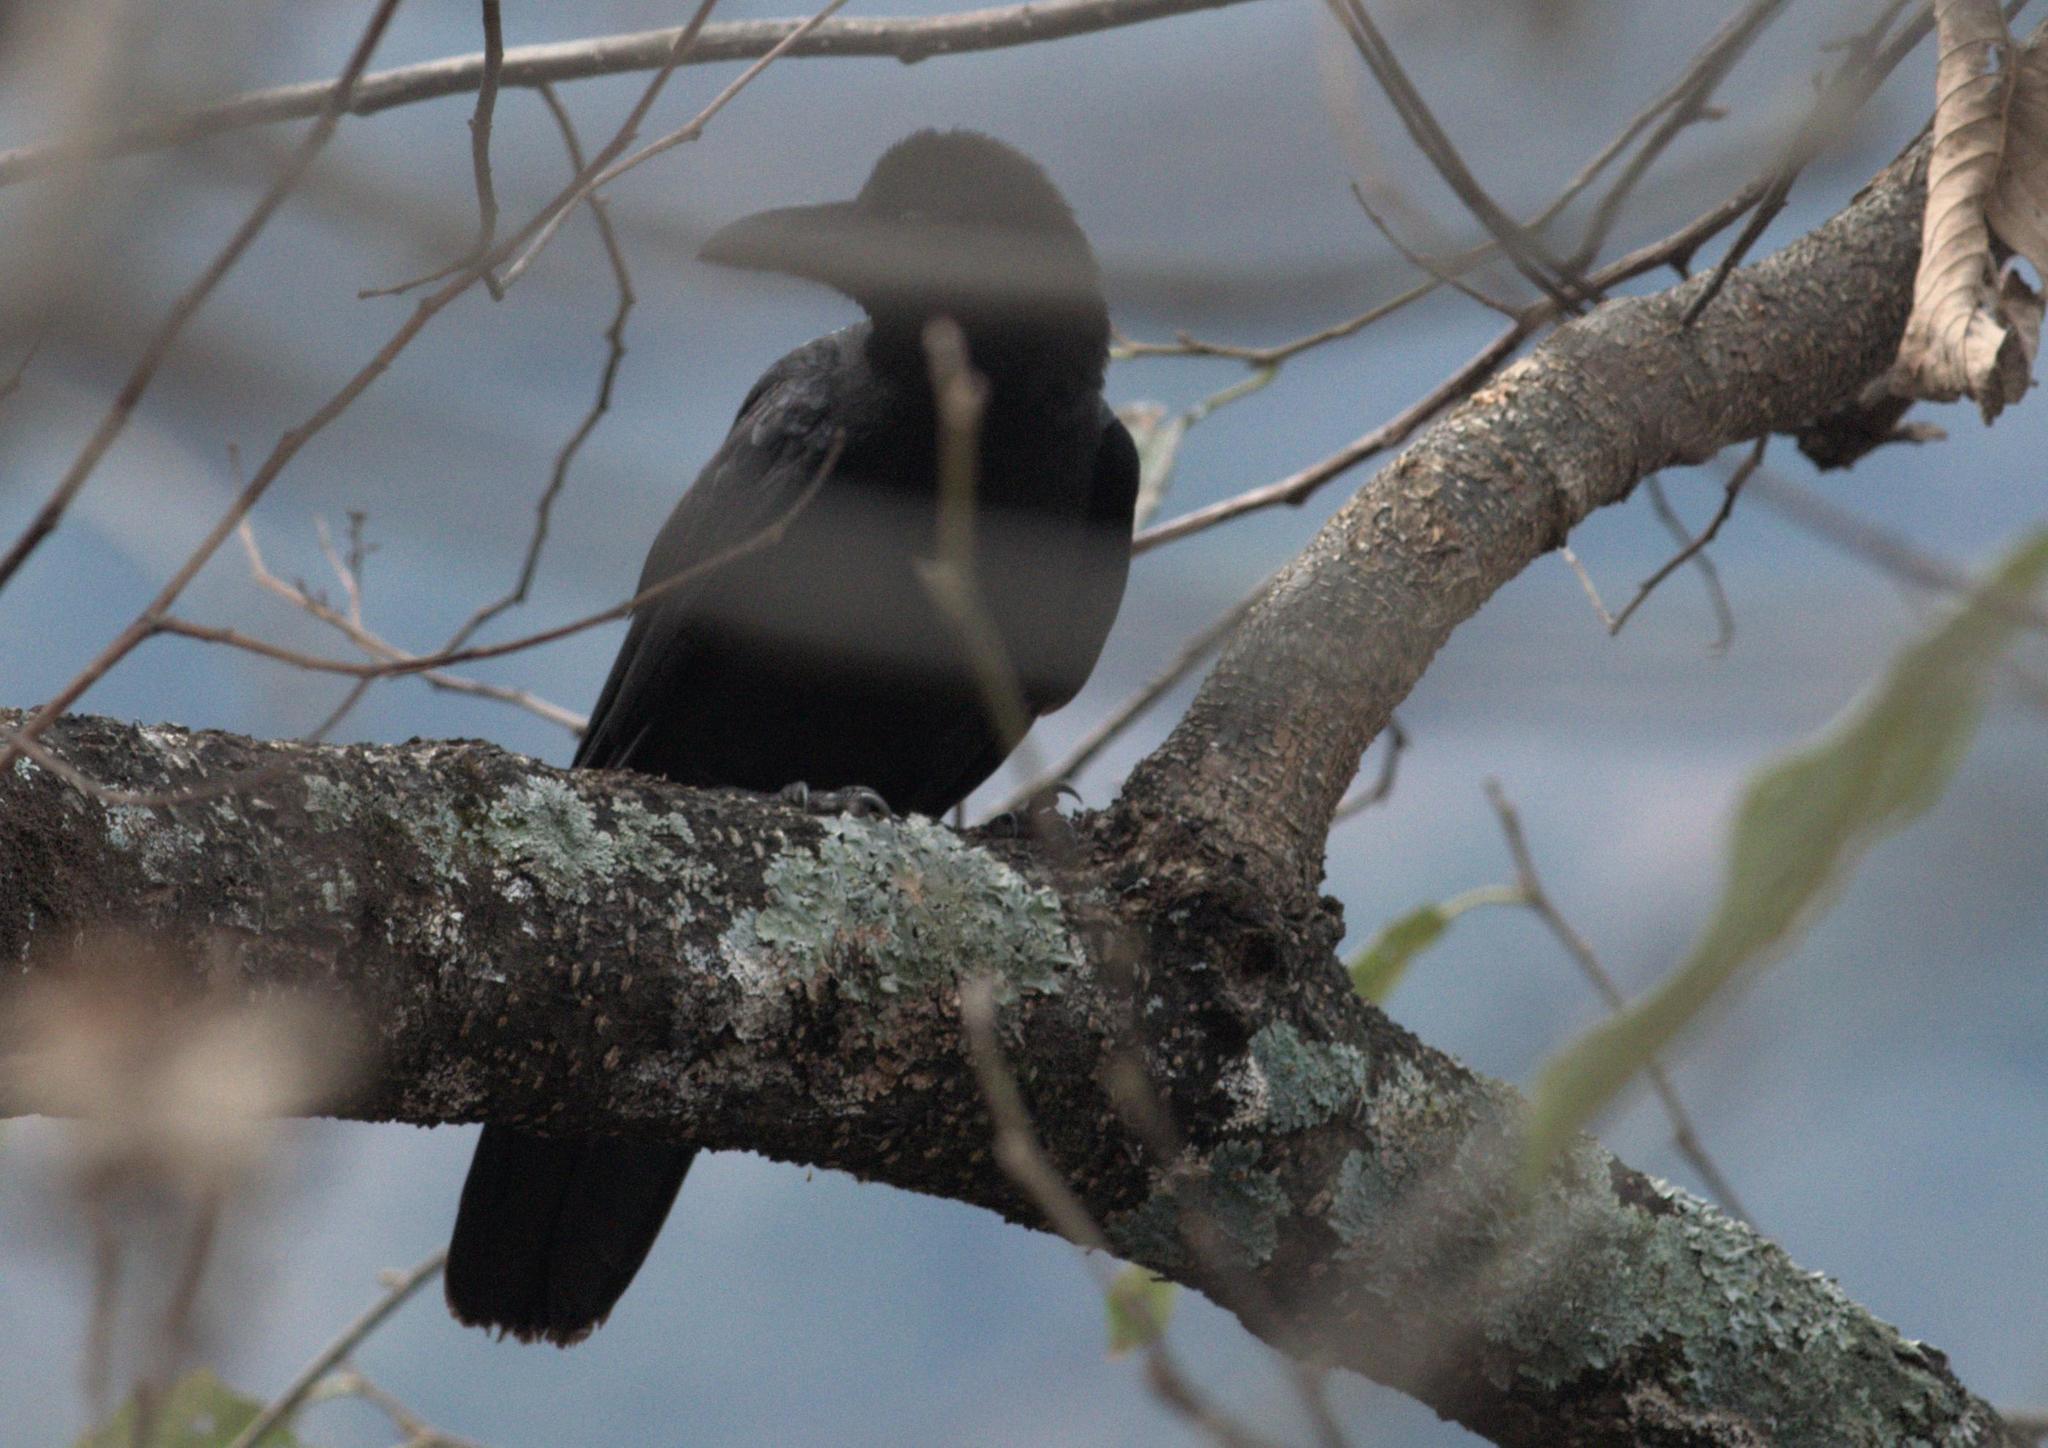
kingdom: Animalia
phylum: Chordata
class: Aves
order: Passeriformes
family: Corvidae
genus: Corvus
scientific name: Corvus macrorhynchos
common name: Large-billed crow
